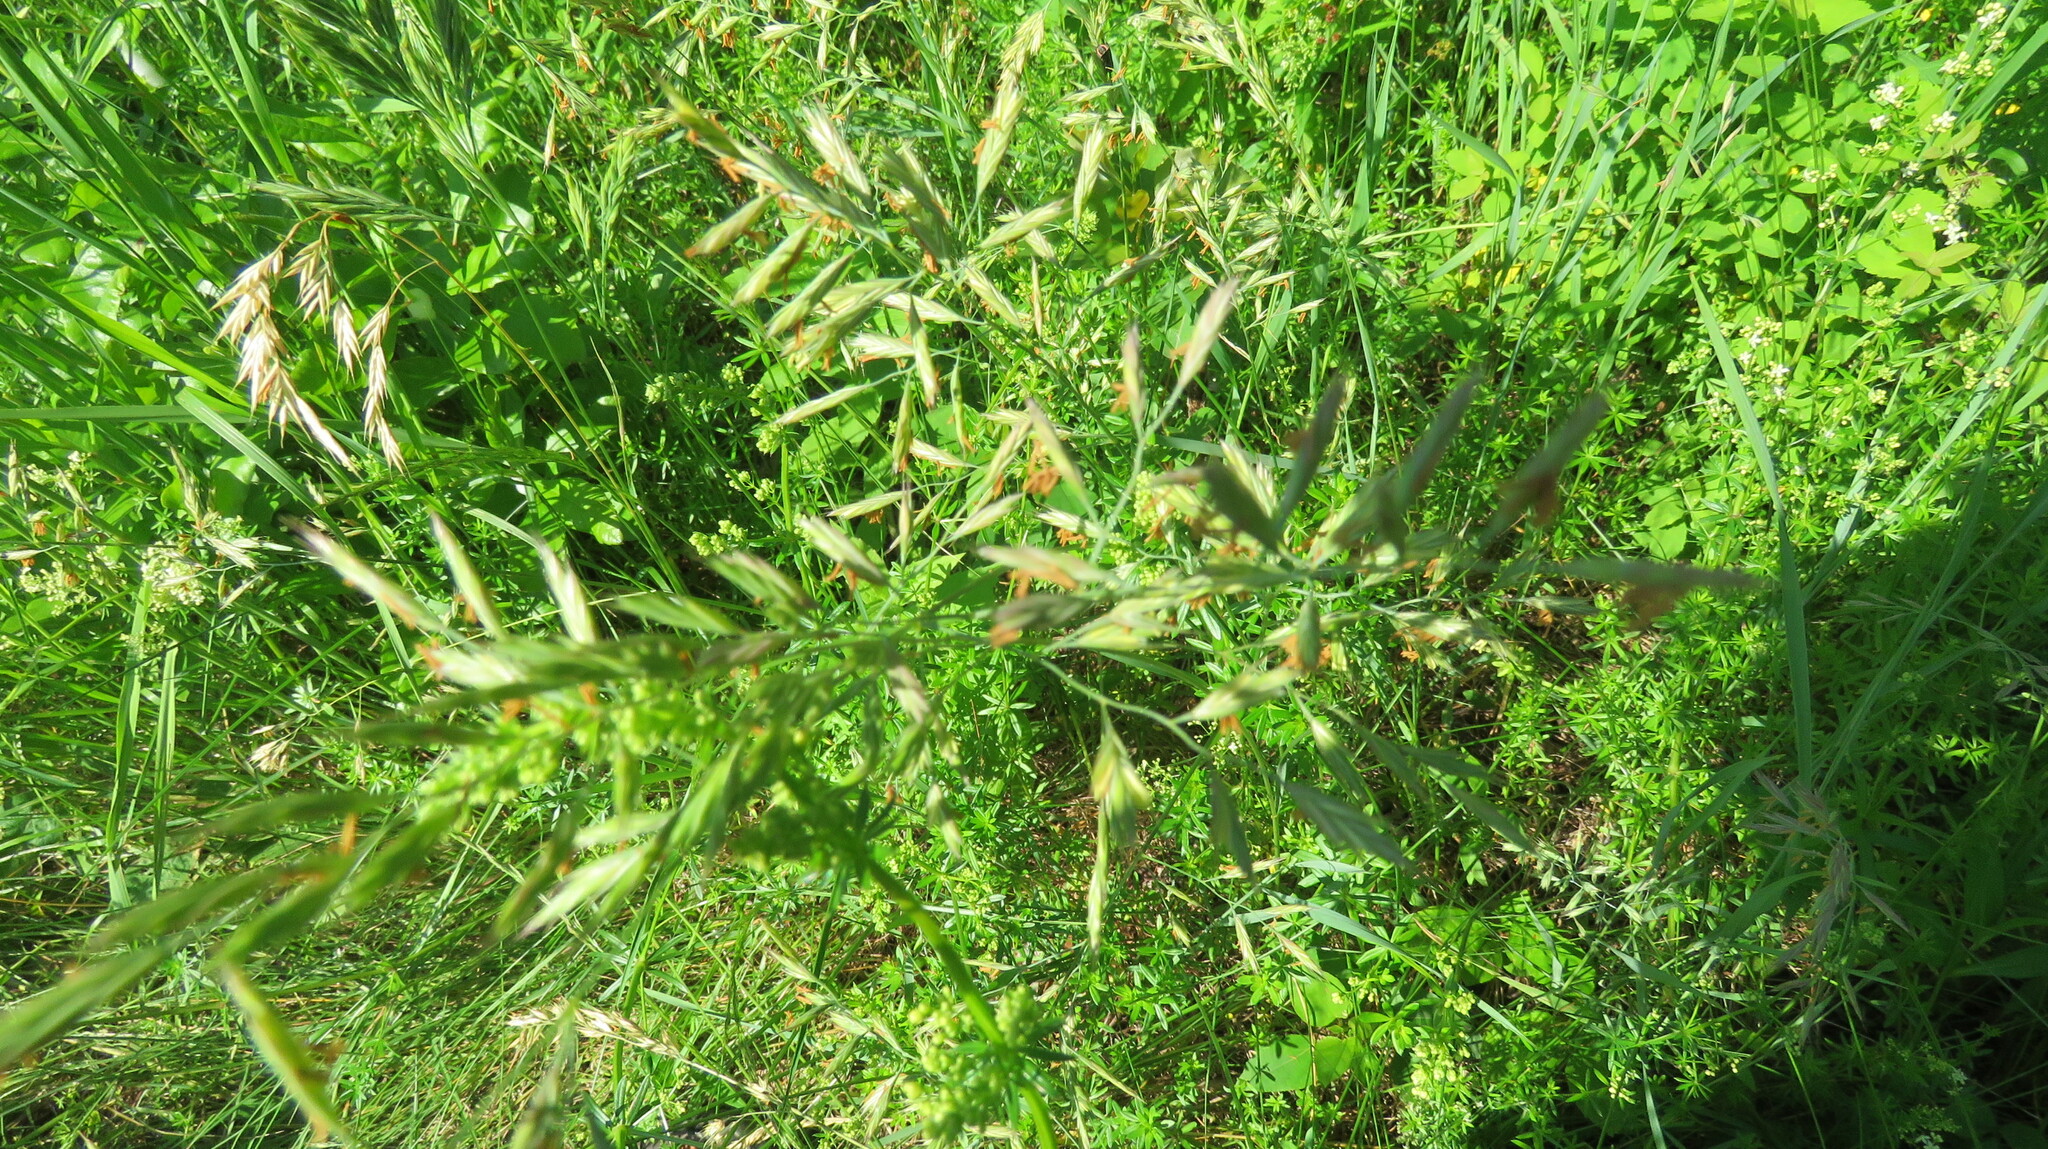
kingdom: Plantae
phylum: Tracheophyta
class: Liliopsida
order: Poales
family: Poaceae
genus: Bromus
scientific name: Bromus inermis
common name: Smooth brome
